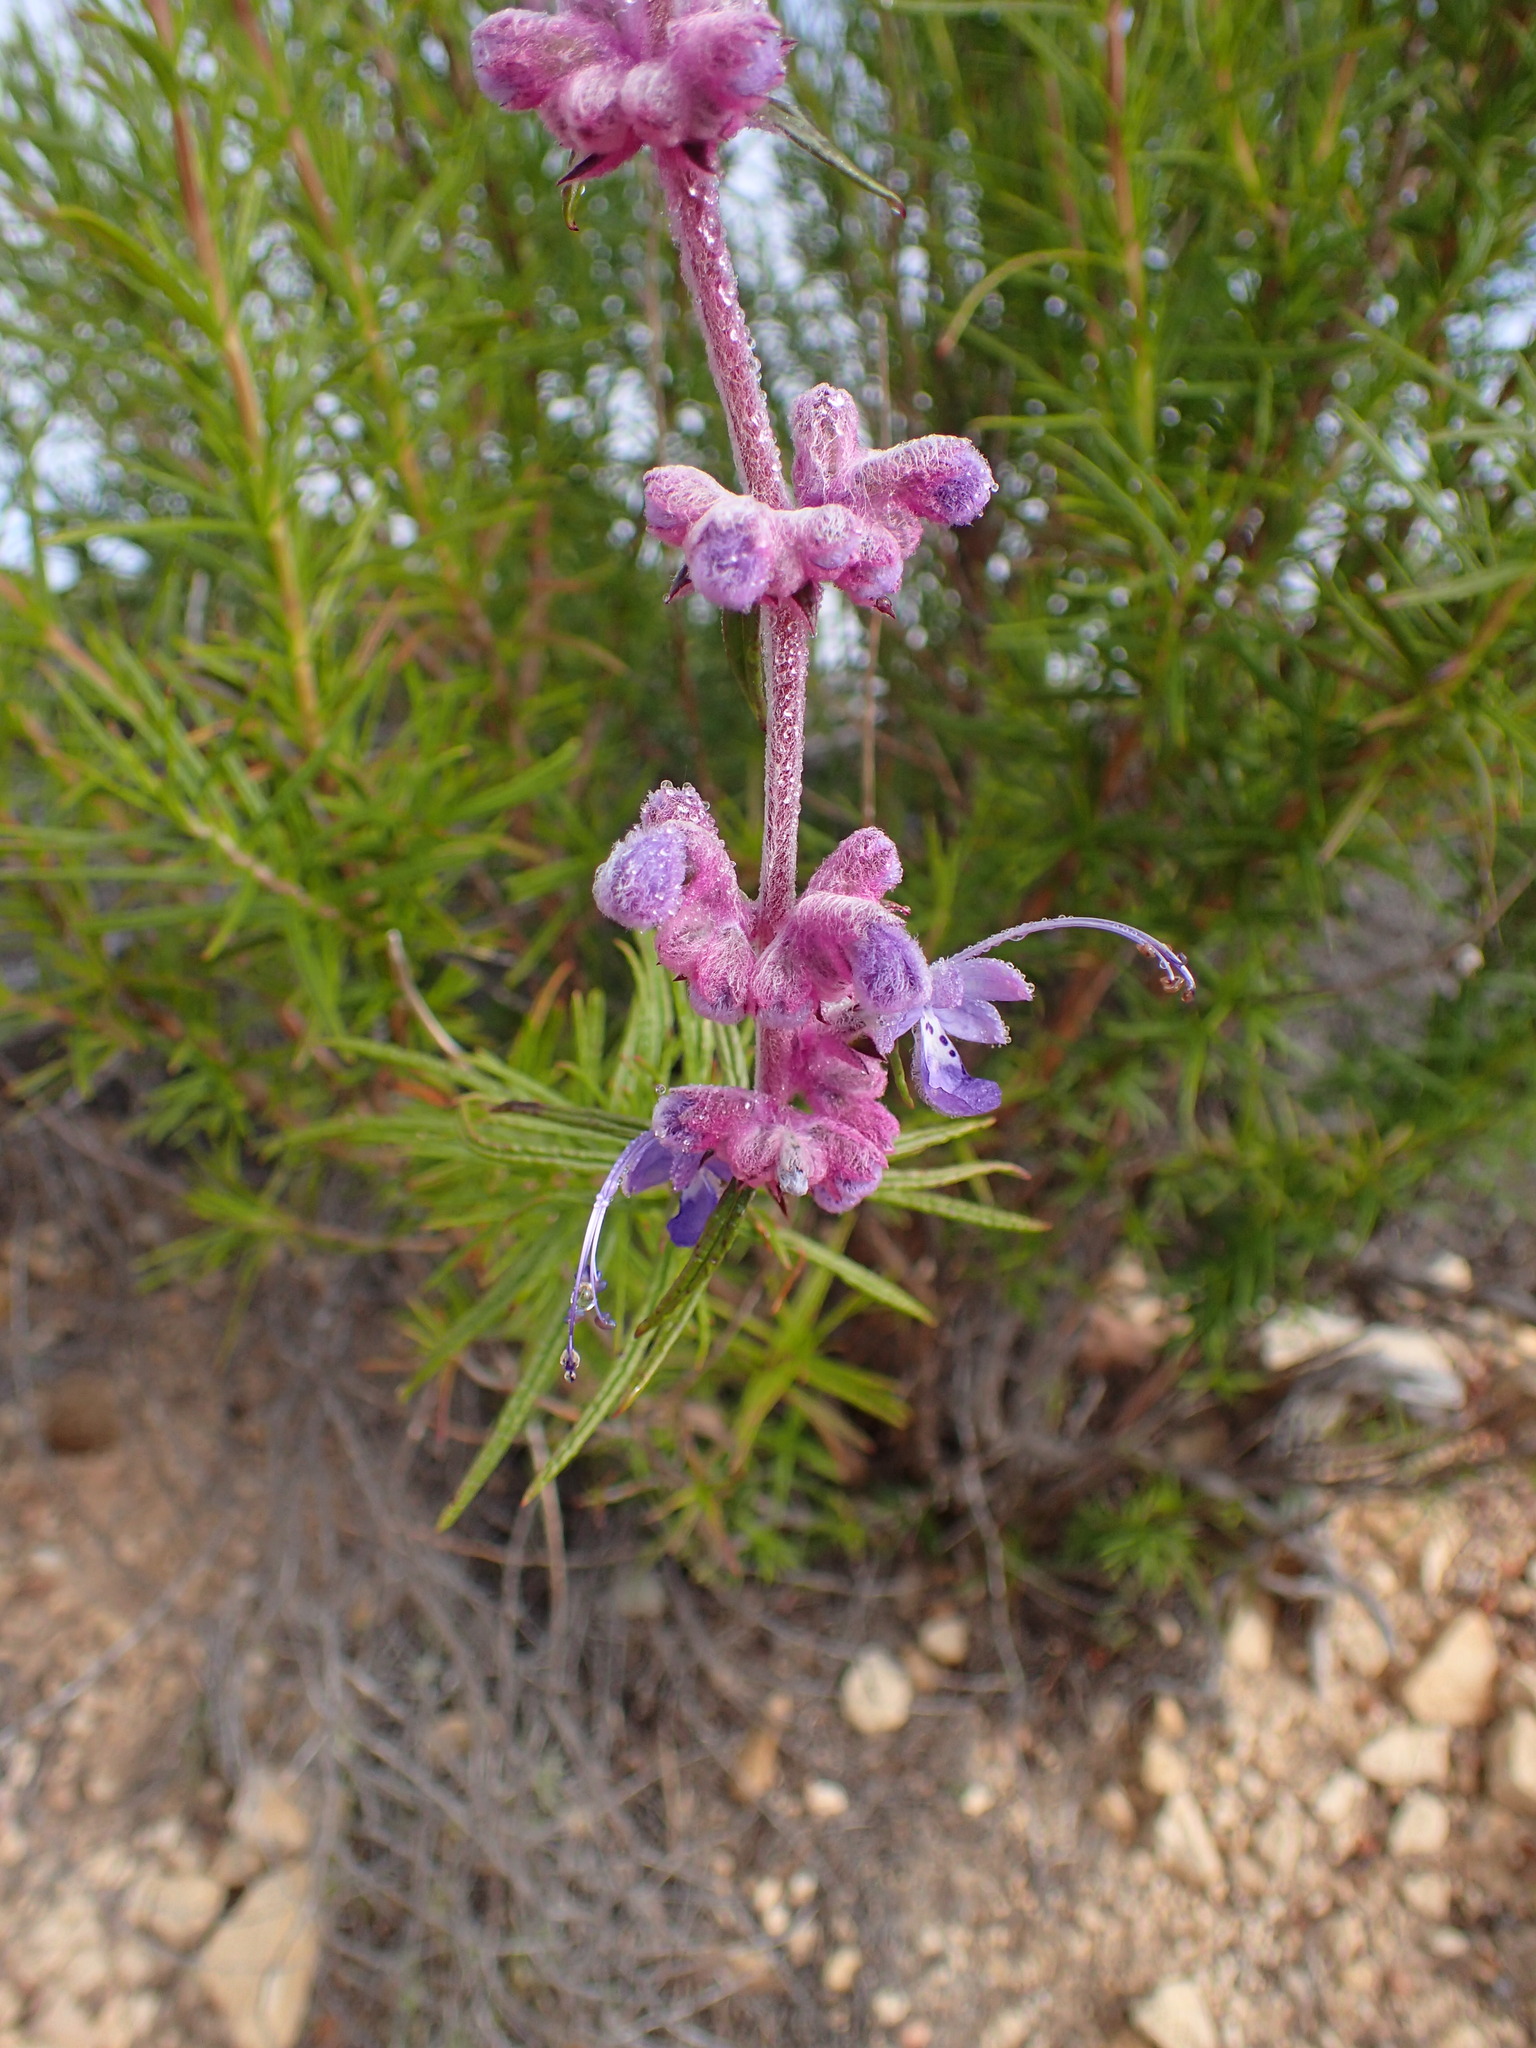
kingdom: Plantae
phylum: Tracheophyta
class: Magnoliopsida
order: Lamiales
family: Lamiaceae
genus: Trichostema
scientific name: Trichostema lanatum
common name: Woolly bluecurls
